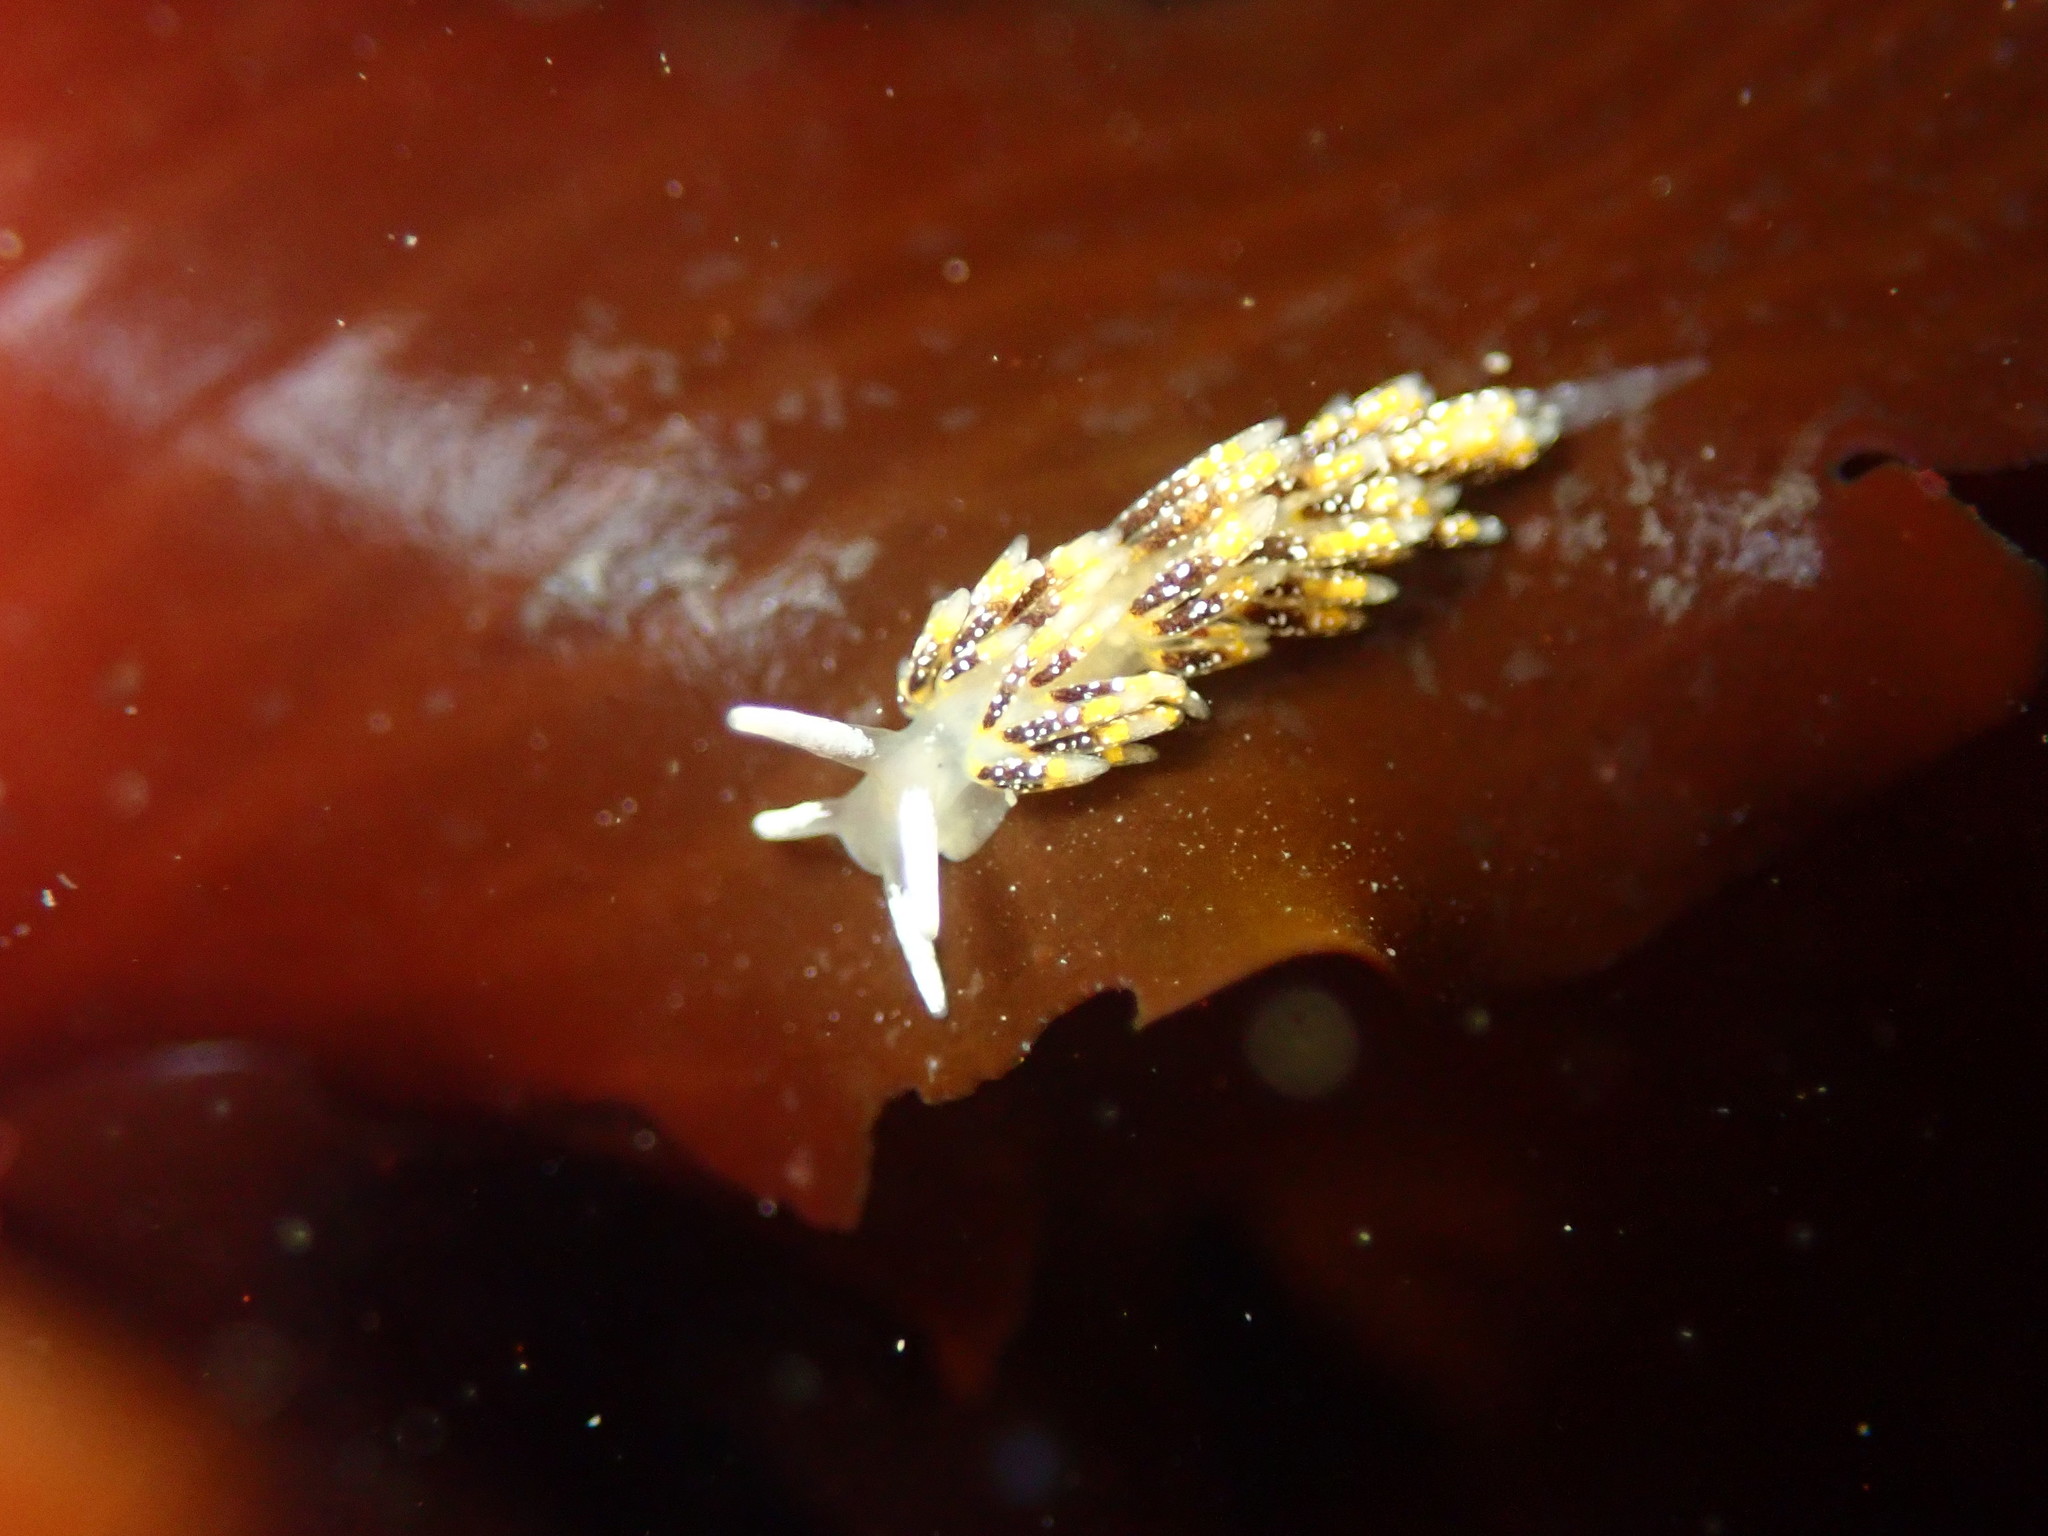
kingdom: Animalia
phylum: Mollusca
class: Gastropoda
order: Nudibranchia
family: Trinchesiidae
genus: Zelentia
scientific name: Zelentia fulgens
